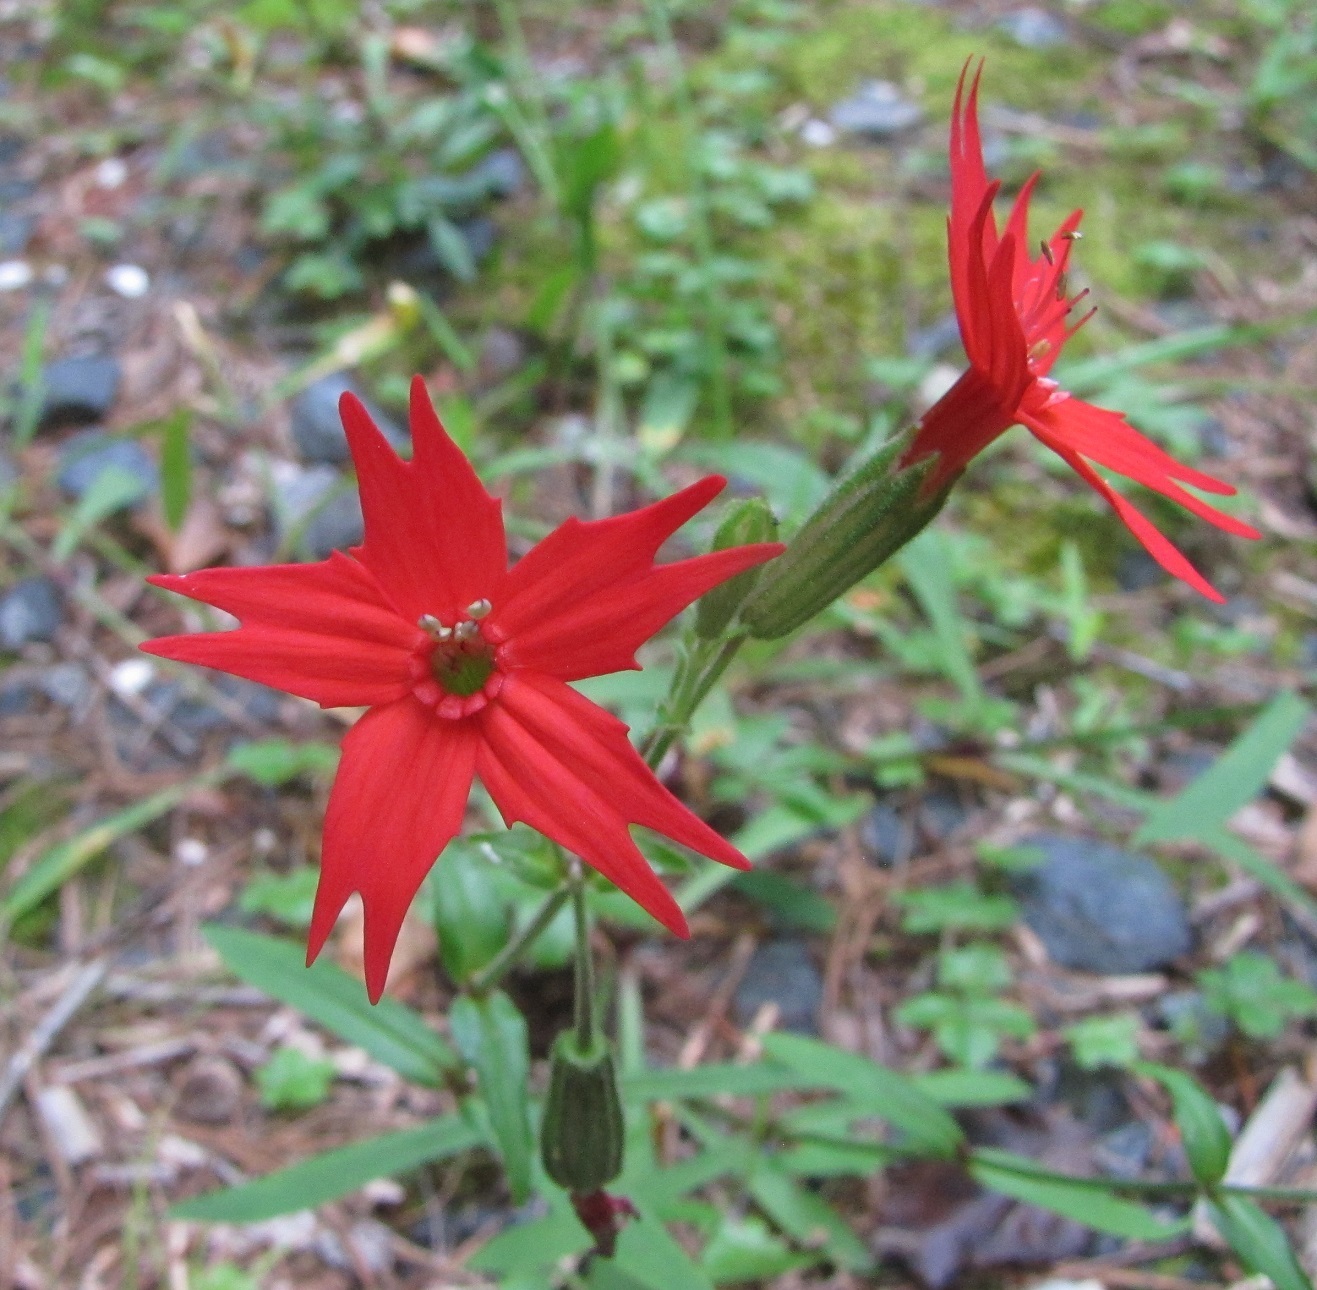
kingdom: Plantae
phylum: Tracheophyta
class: Magnoliopsida
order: Caryophyllales
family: Caryophyllaceae
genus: Silene
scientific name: Silene virginica
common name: Fire-pink
